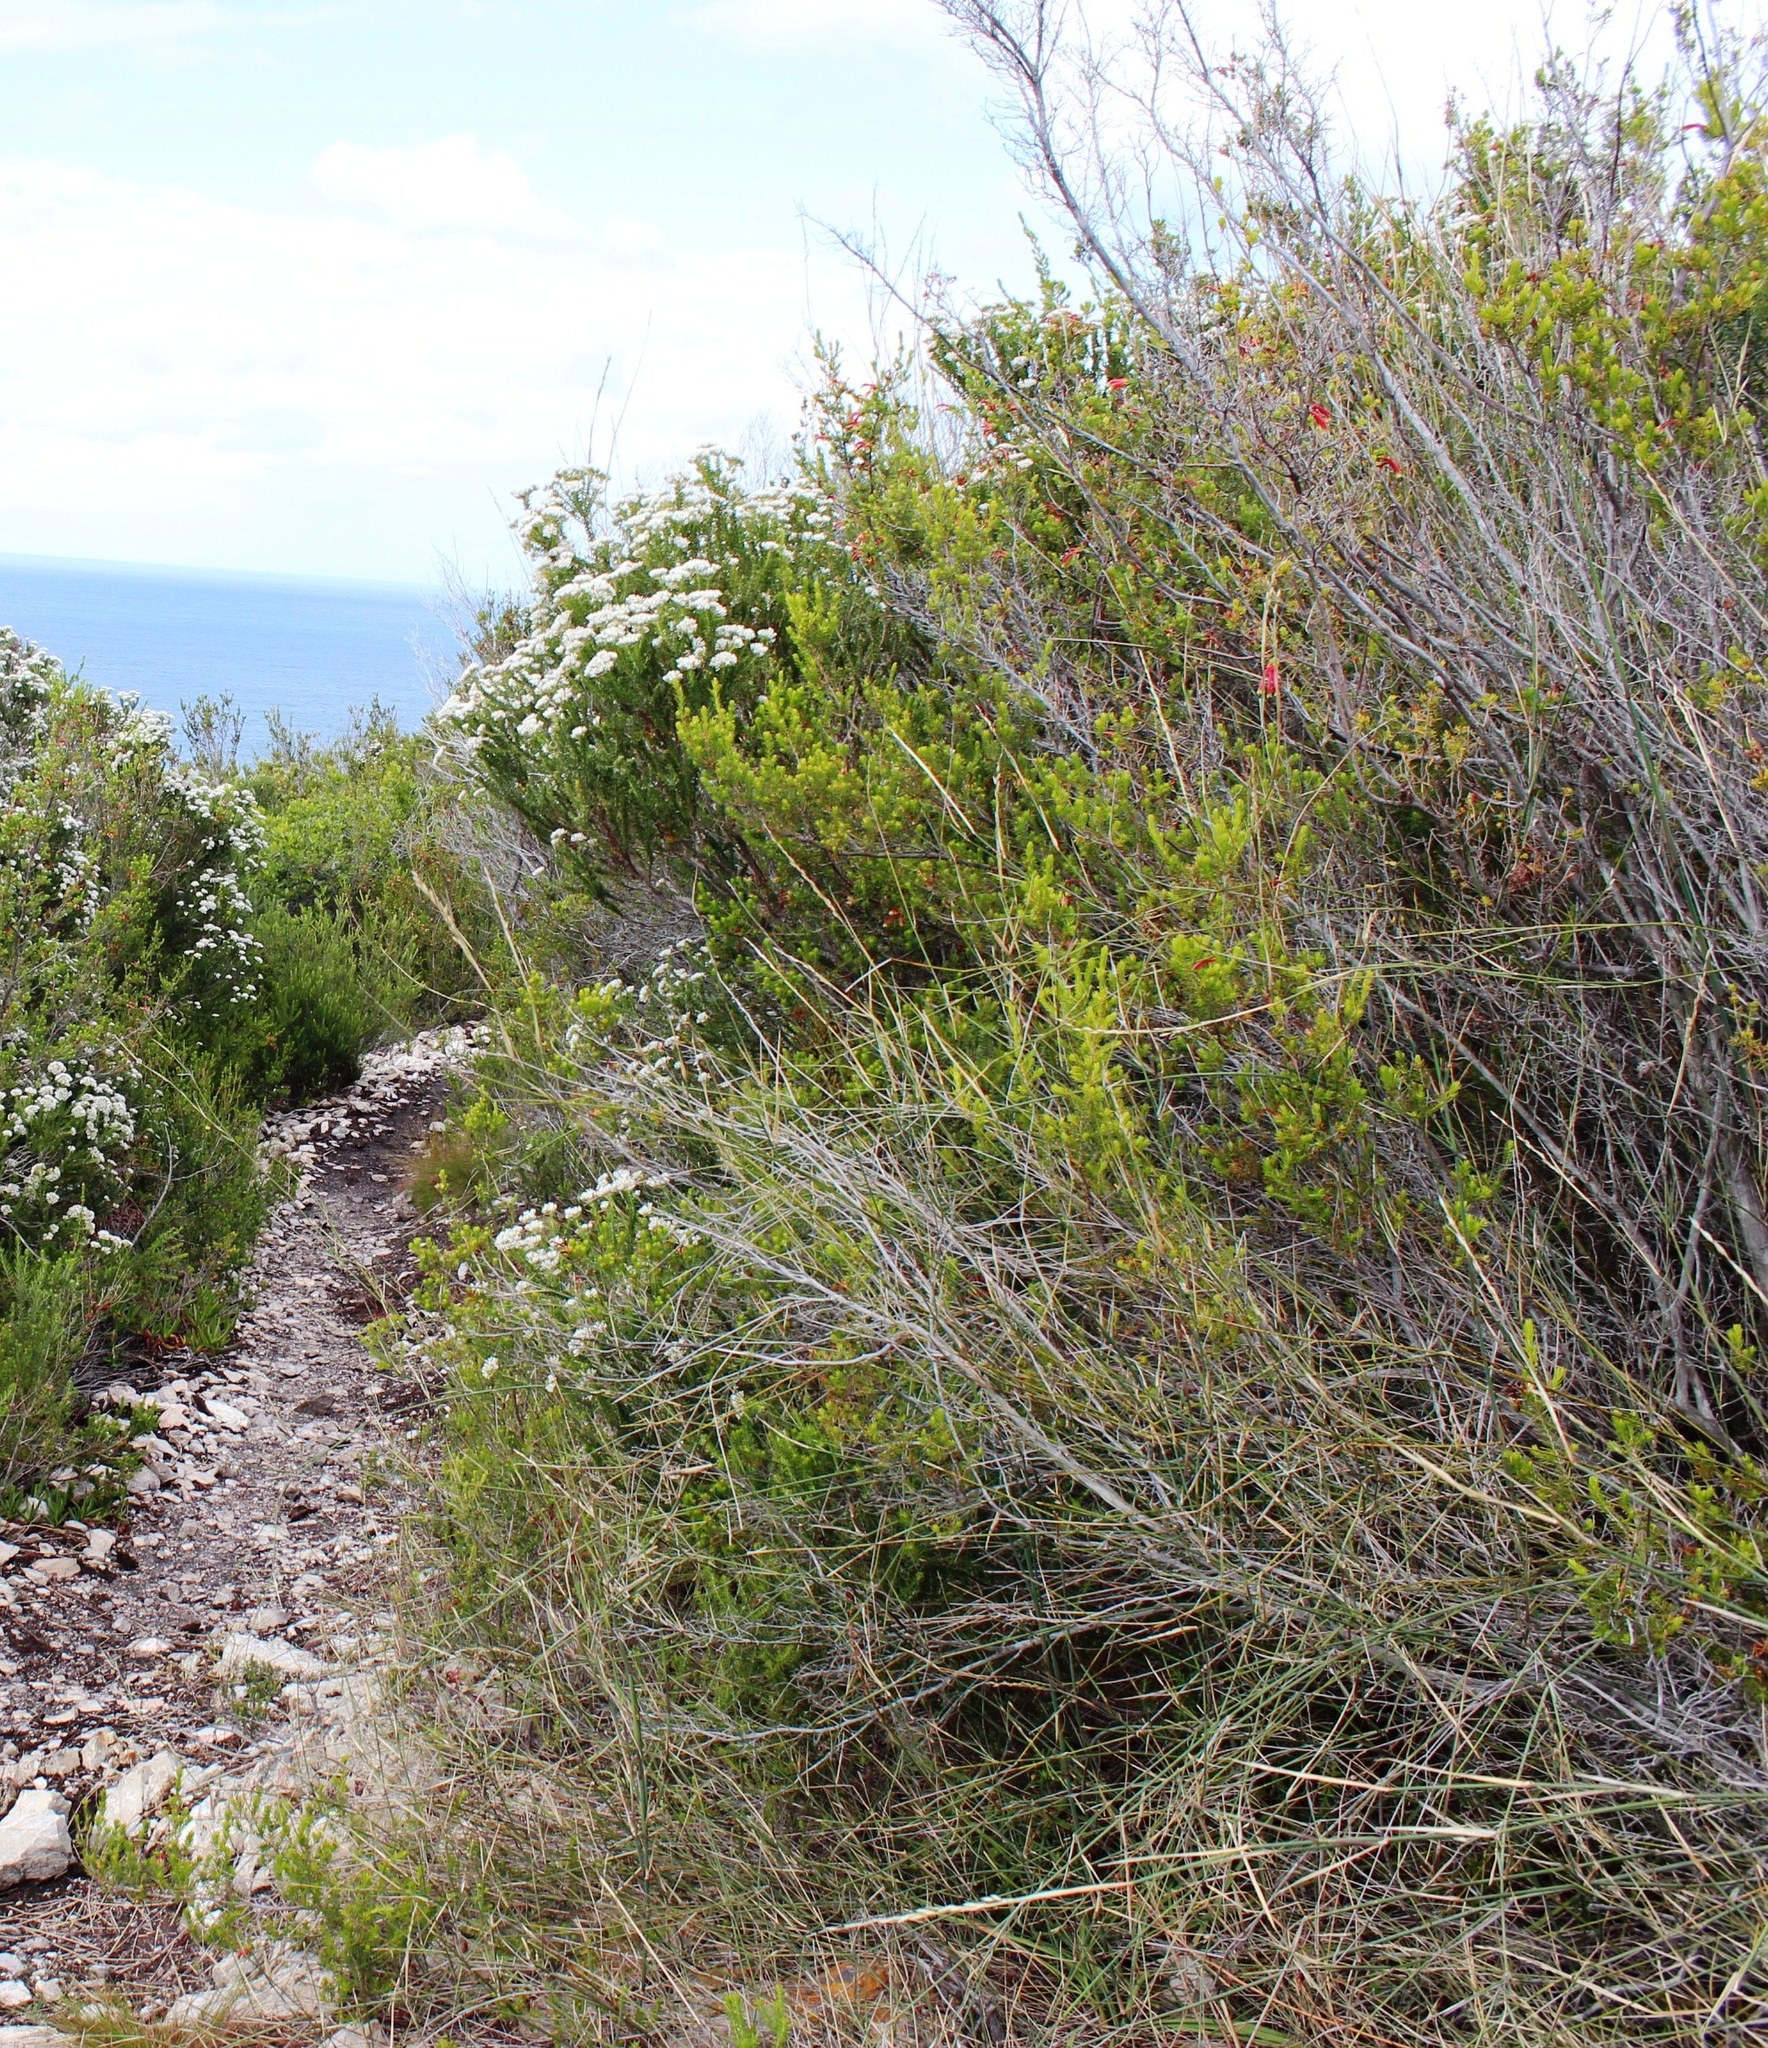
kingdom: Plantae
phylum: Tracheophyta
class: Magnoliopsida
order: Ericales
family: Ericaceae
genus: Erica
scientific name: Erica discolor
